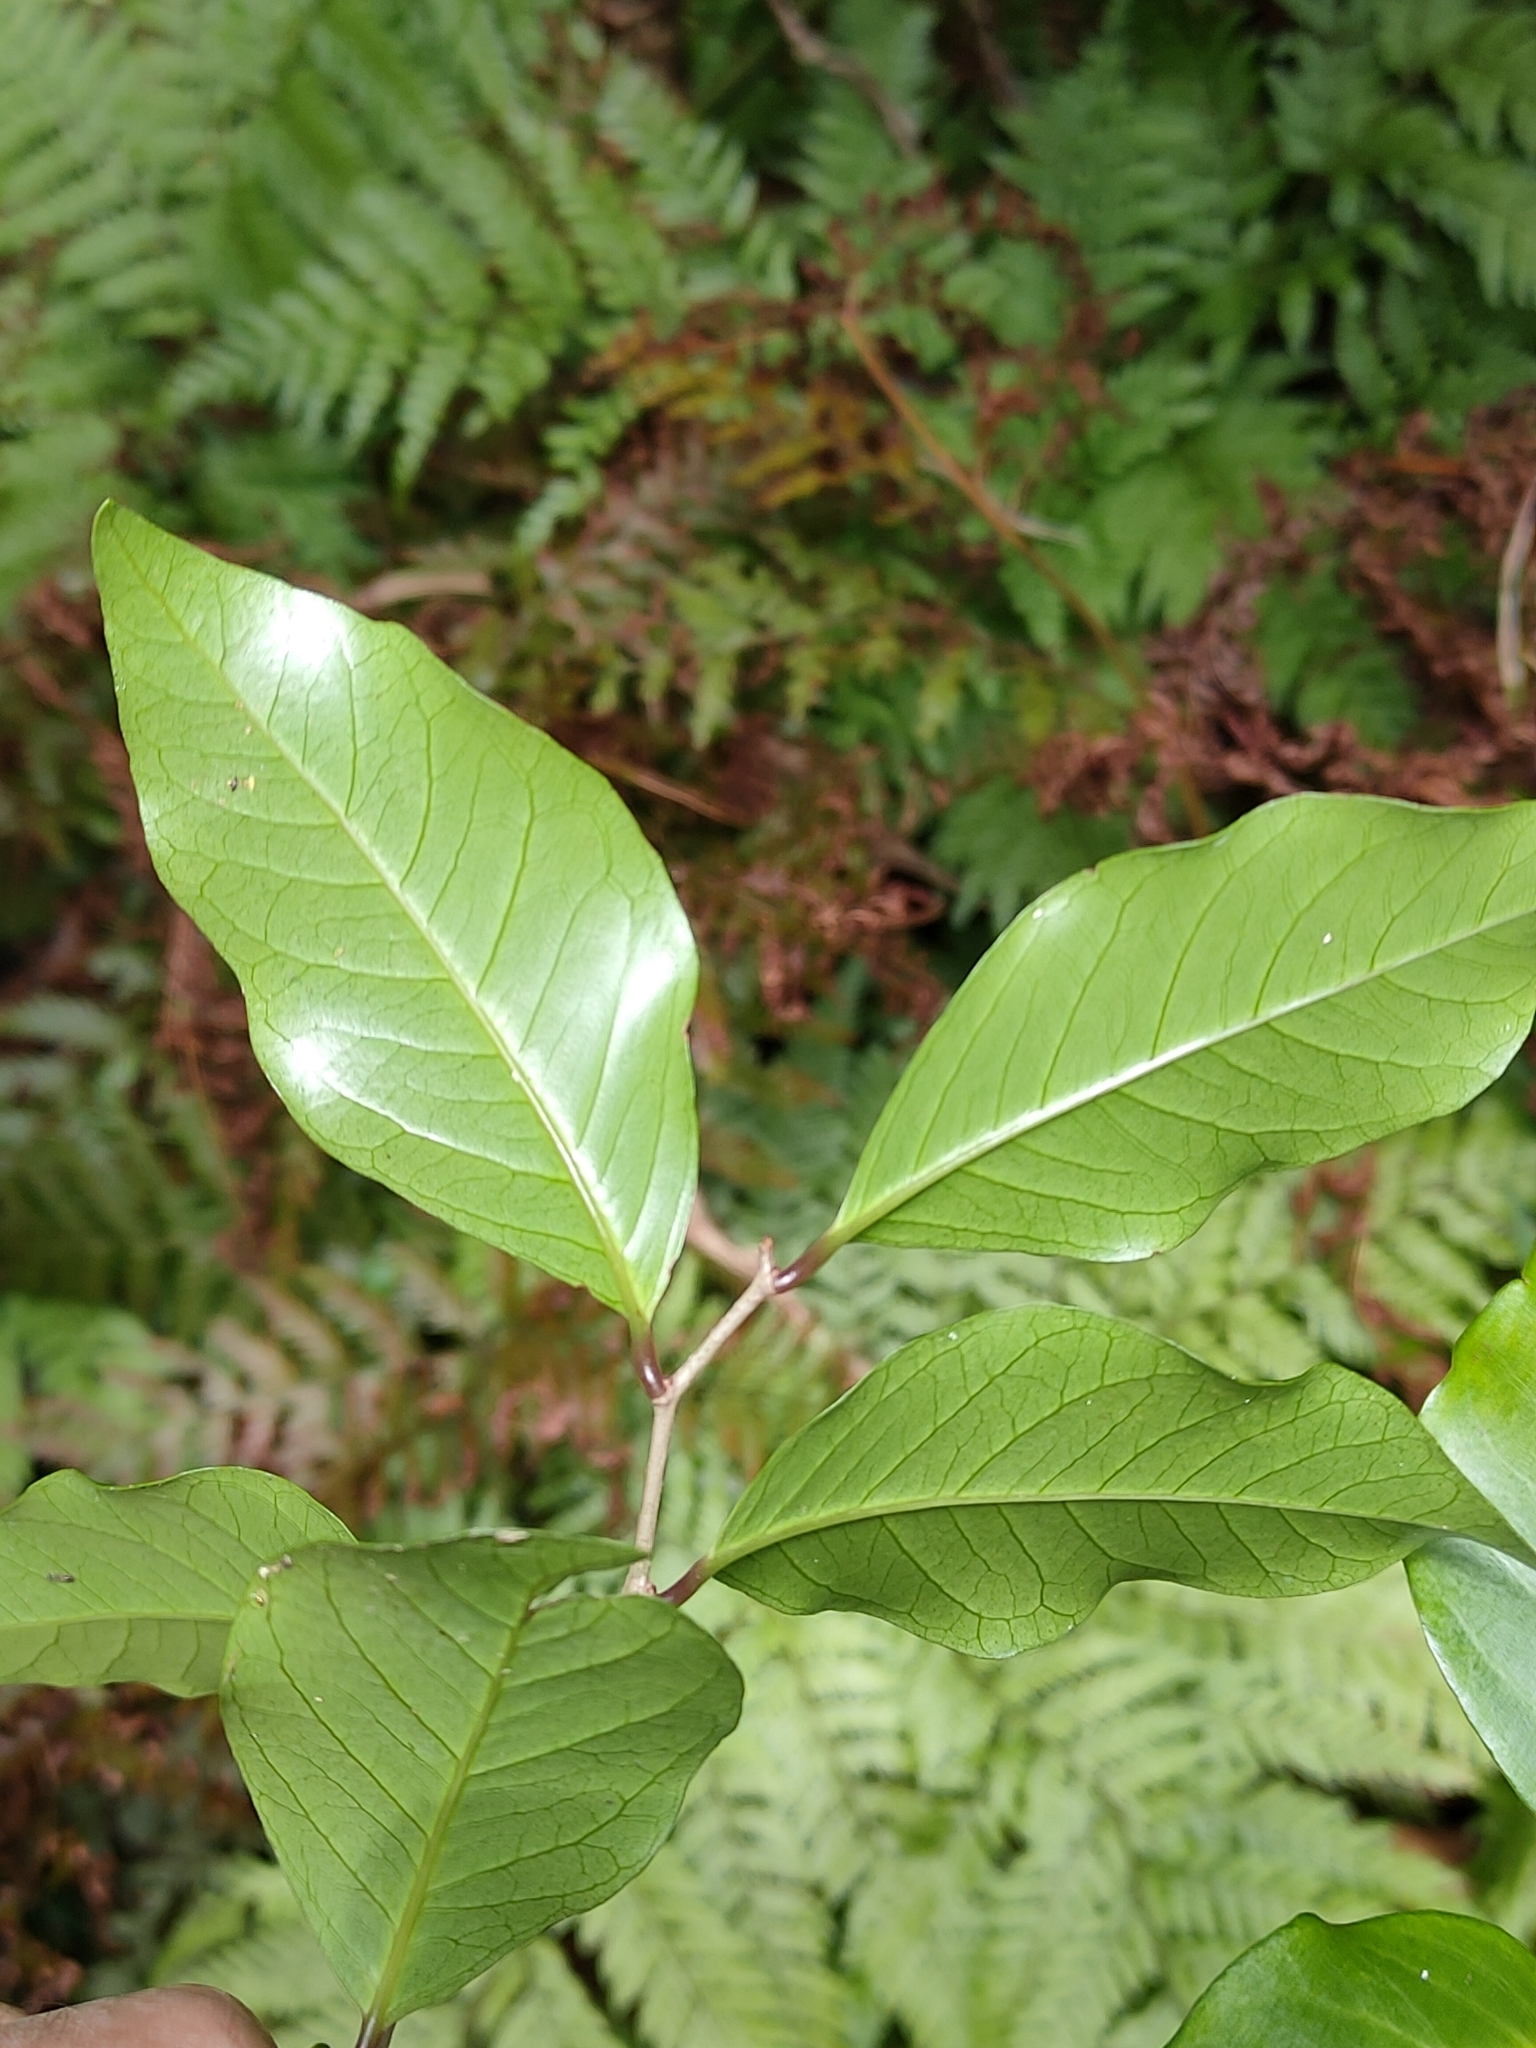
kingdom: Plantae
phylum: Tracheophyta
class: Magnoliopsida
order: Ericales
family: Primulaceae
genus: Embelia
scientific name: Embelia australiana
